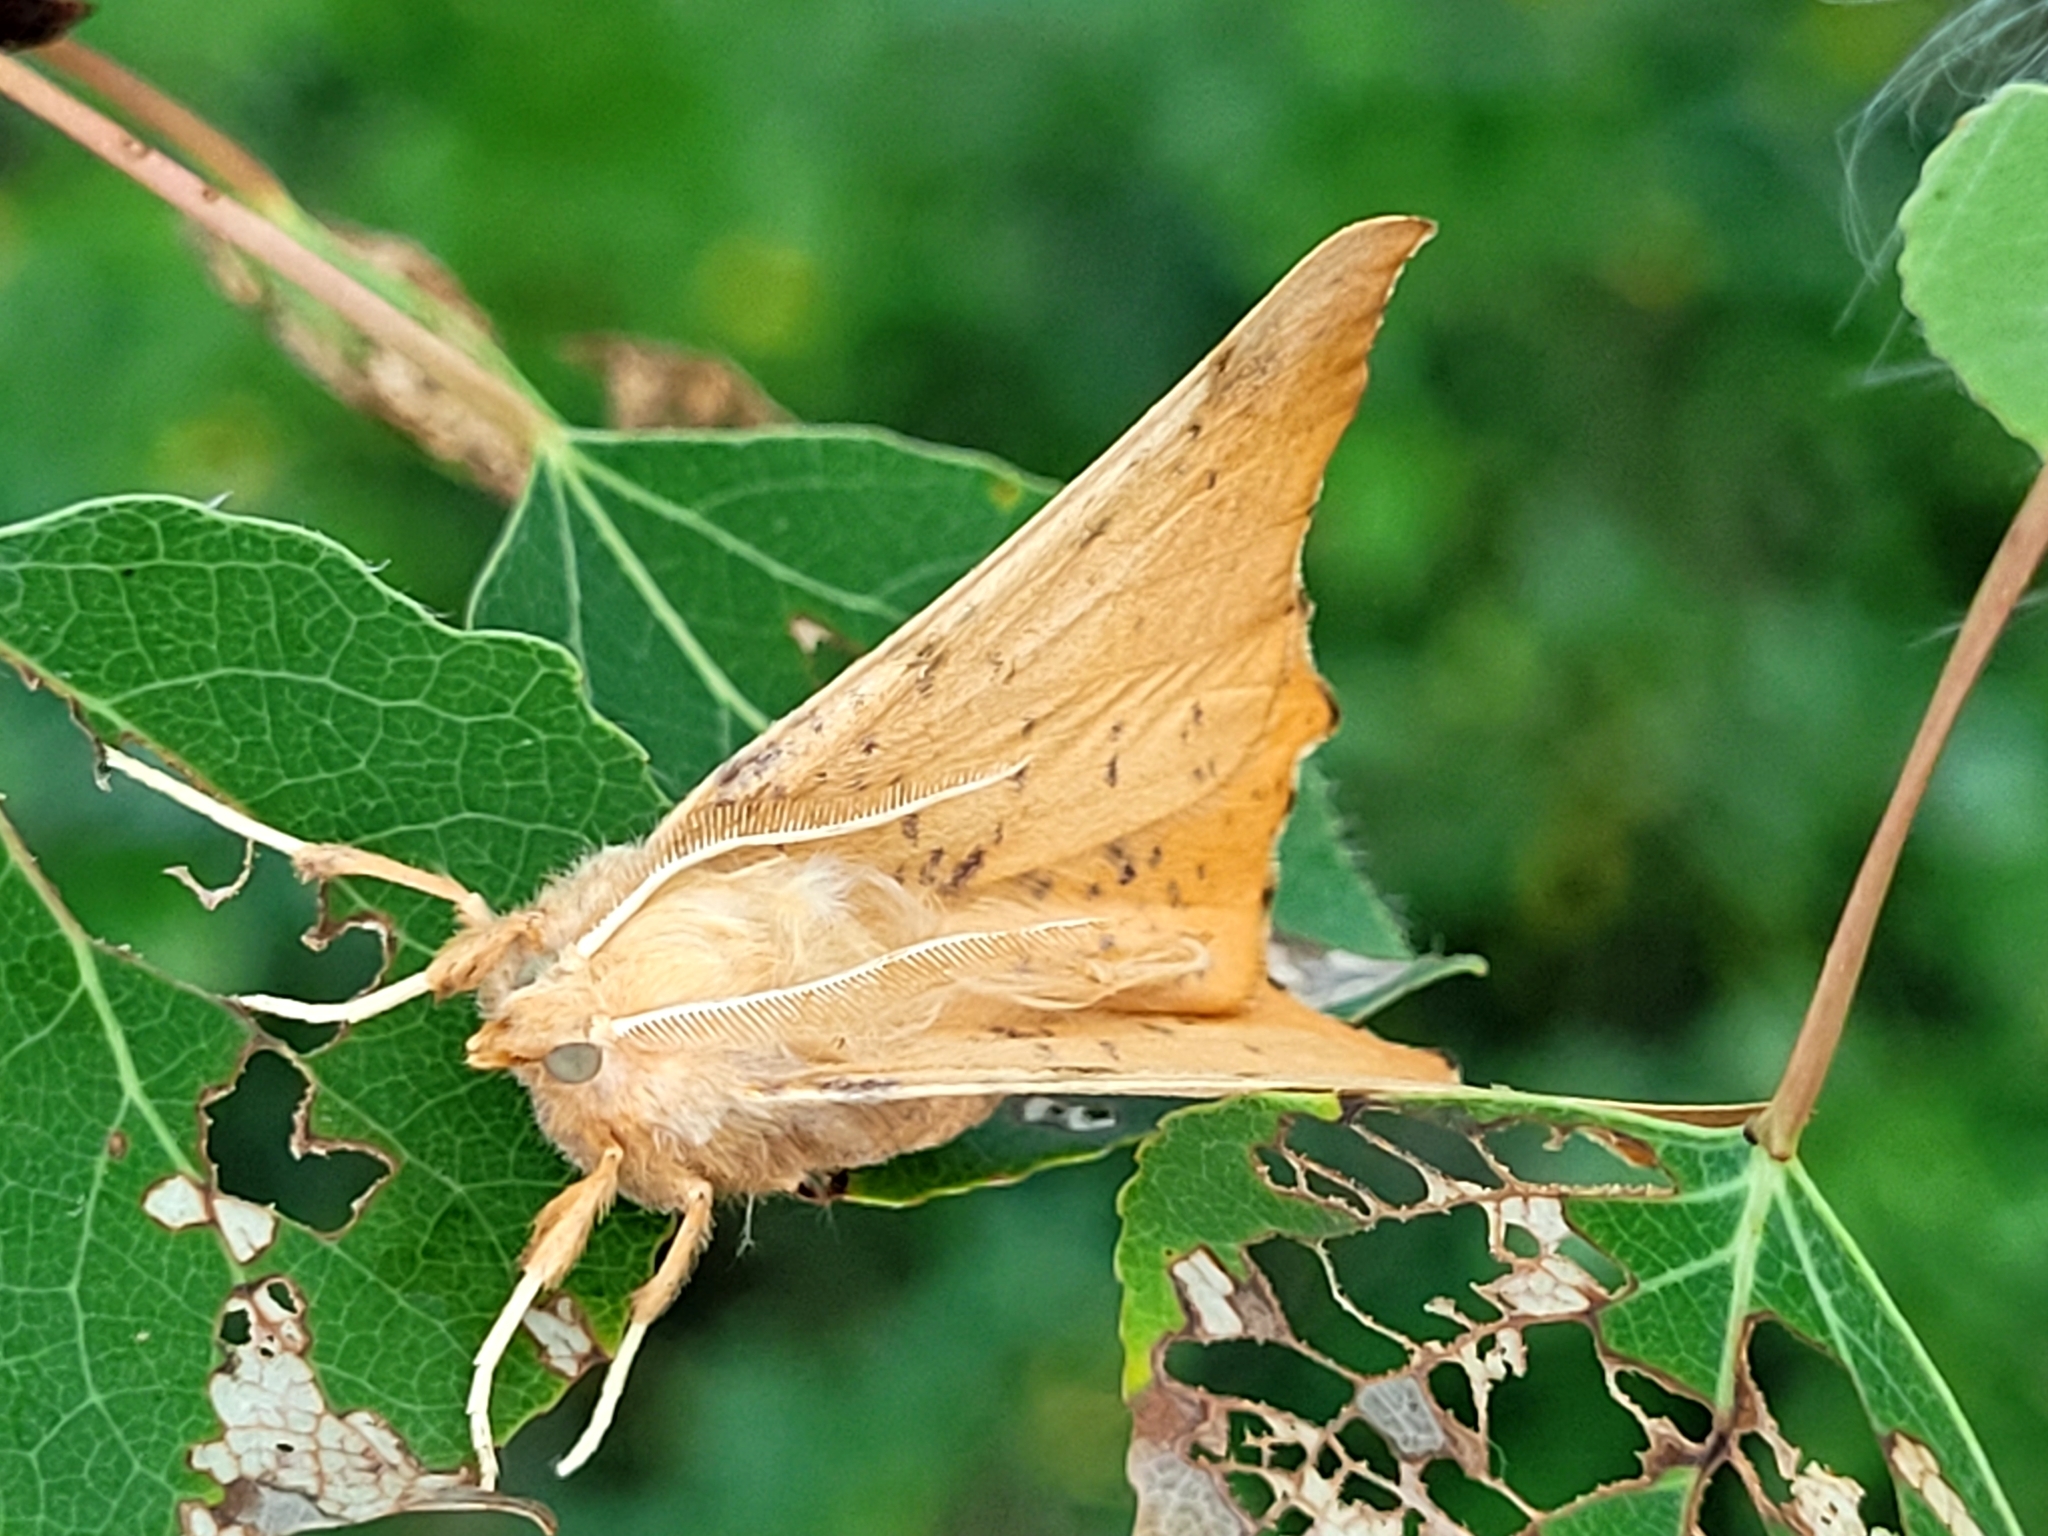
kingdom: Animalia
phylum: Arthropoda
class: Insecta
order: Lepidoptera
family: Geometridae
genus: Ennomos
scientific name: Ennomos magnaria
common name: Maple spanworm
